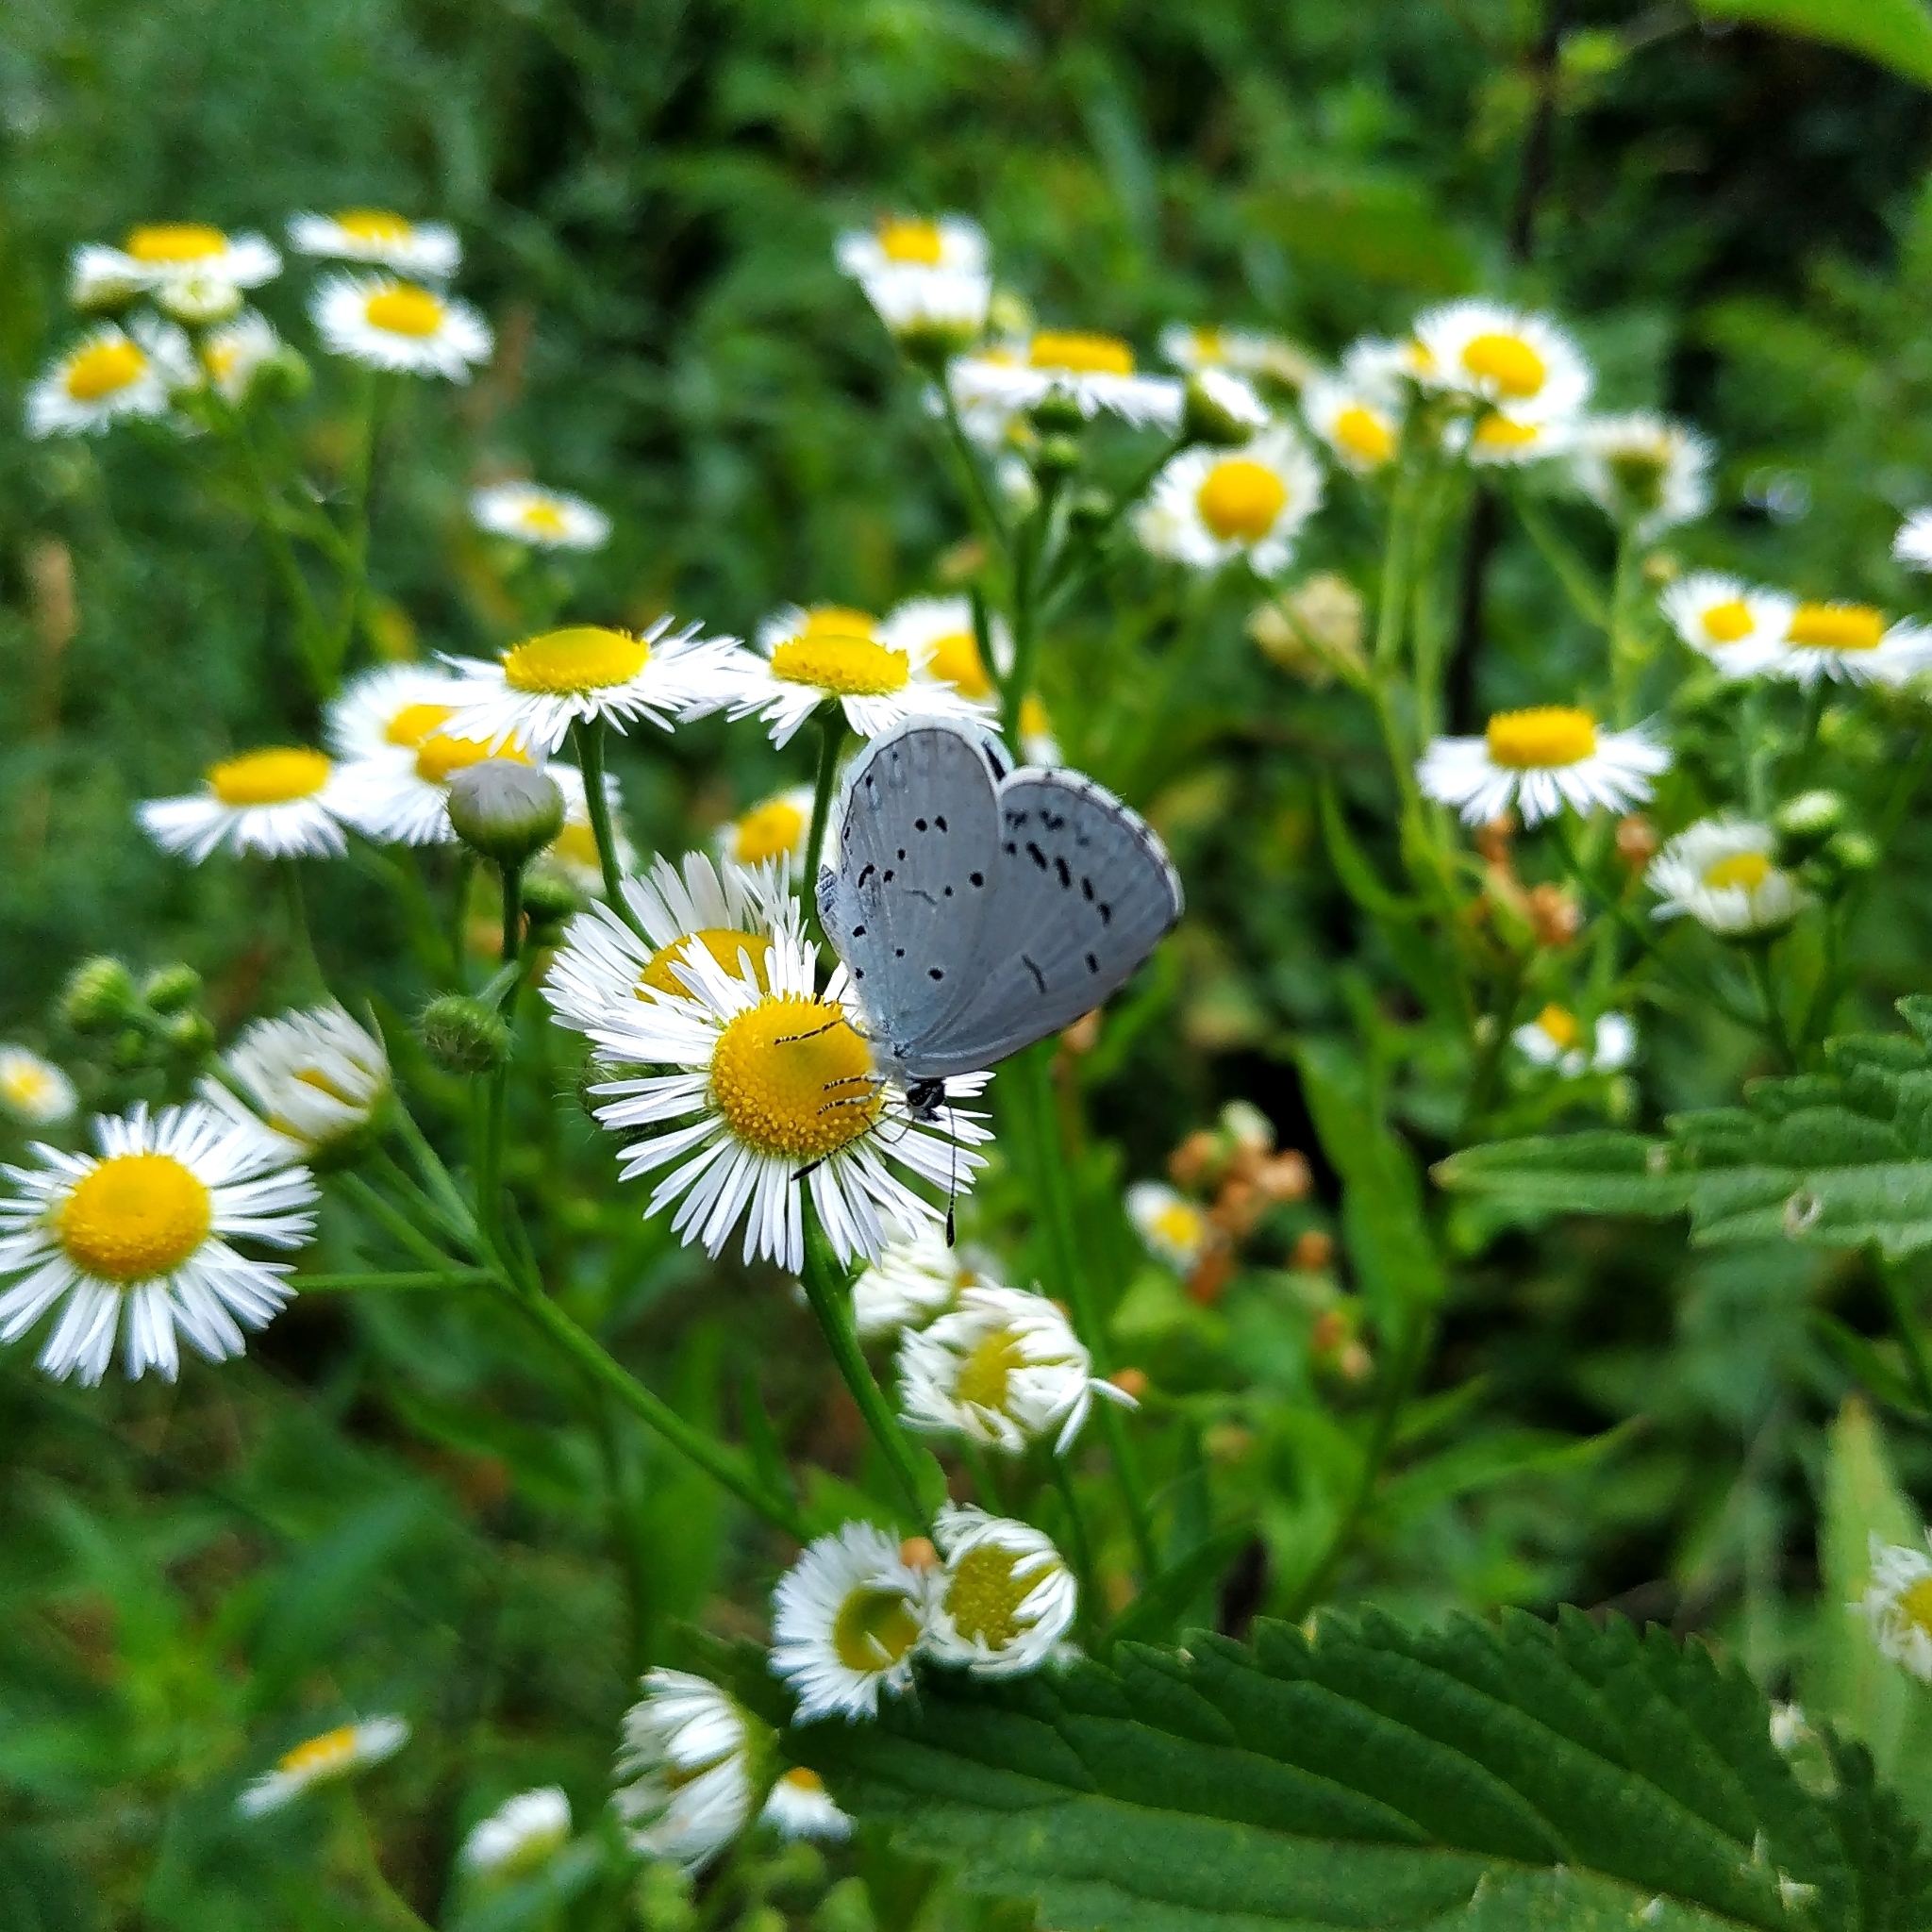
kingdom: Animalia
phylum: Arthropoda
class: Insecta
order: Lepidoptera
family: Lycaenidae
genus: Celastrina
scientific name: Celastrina argiolus
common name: Holly blue
